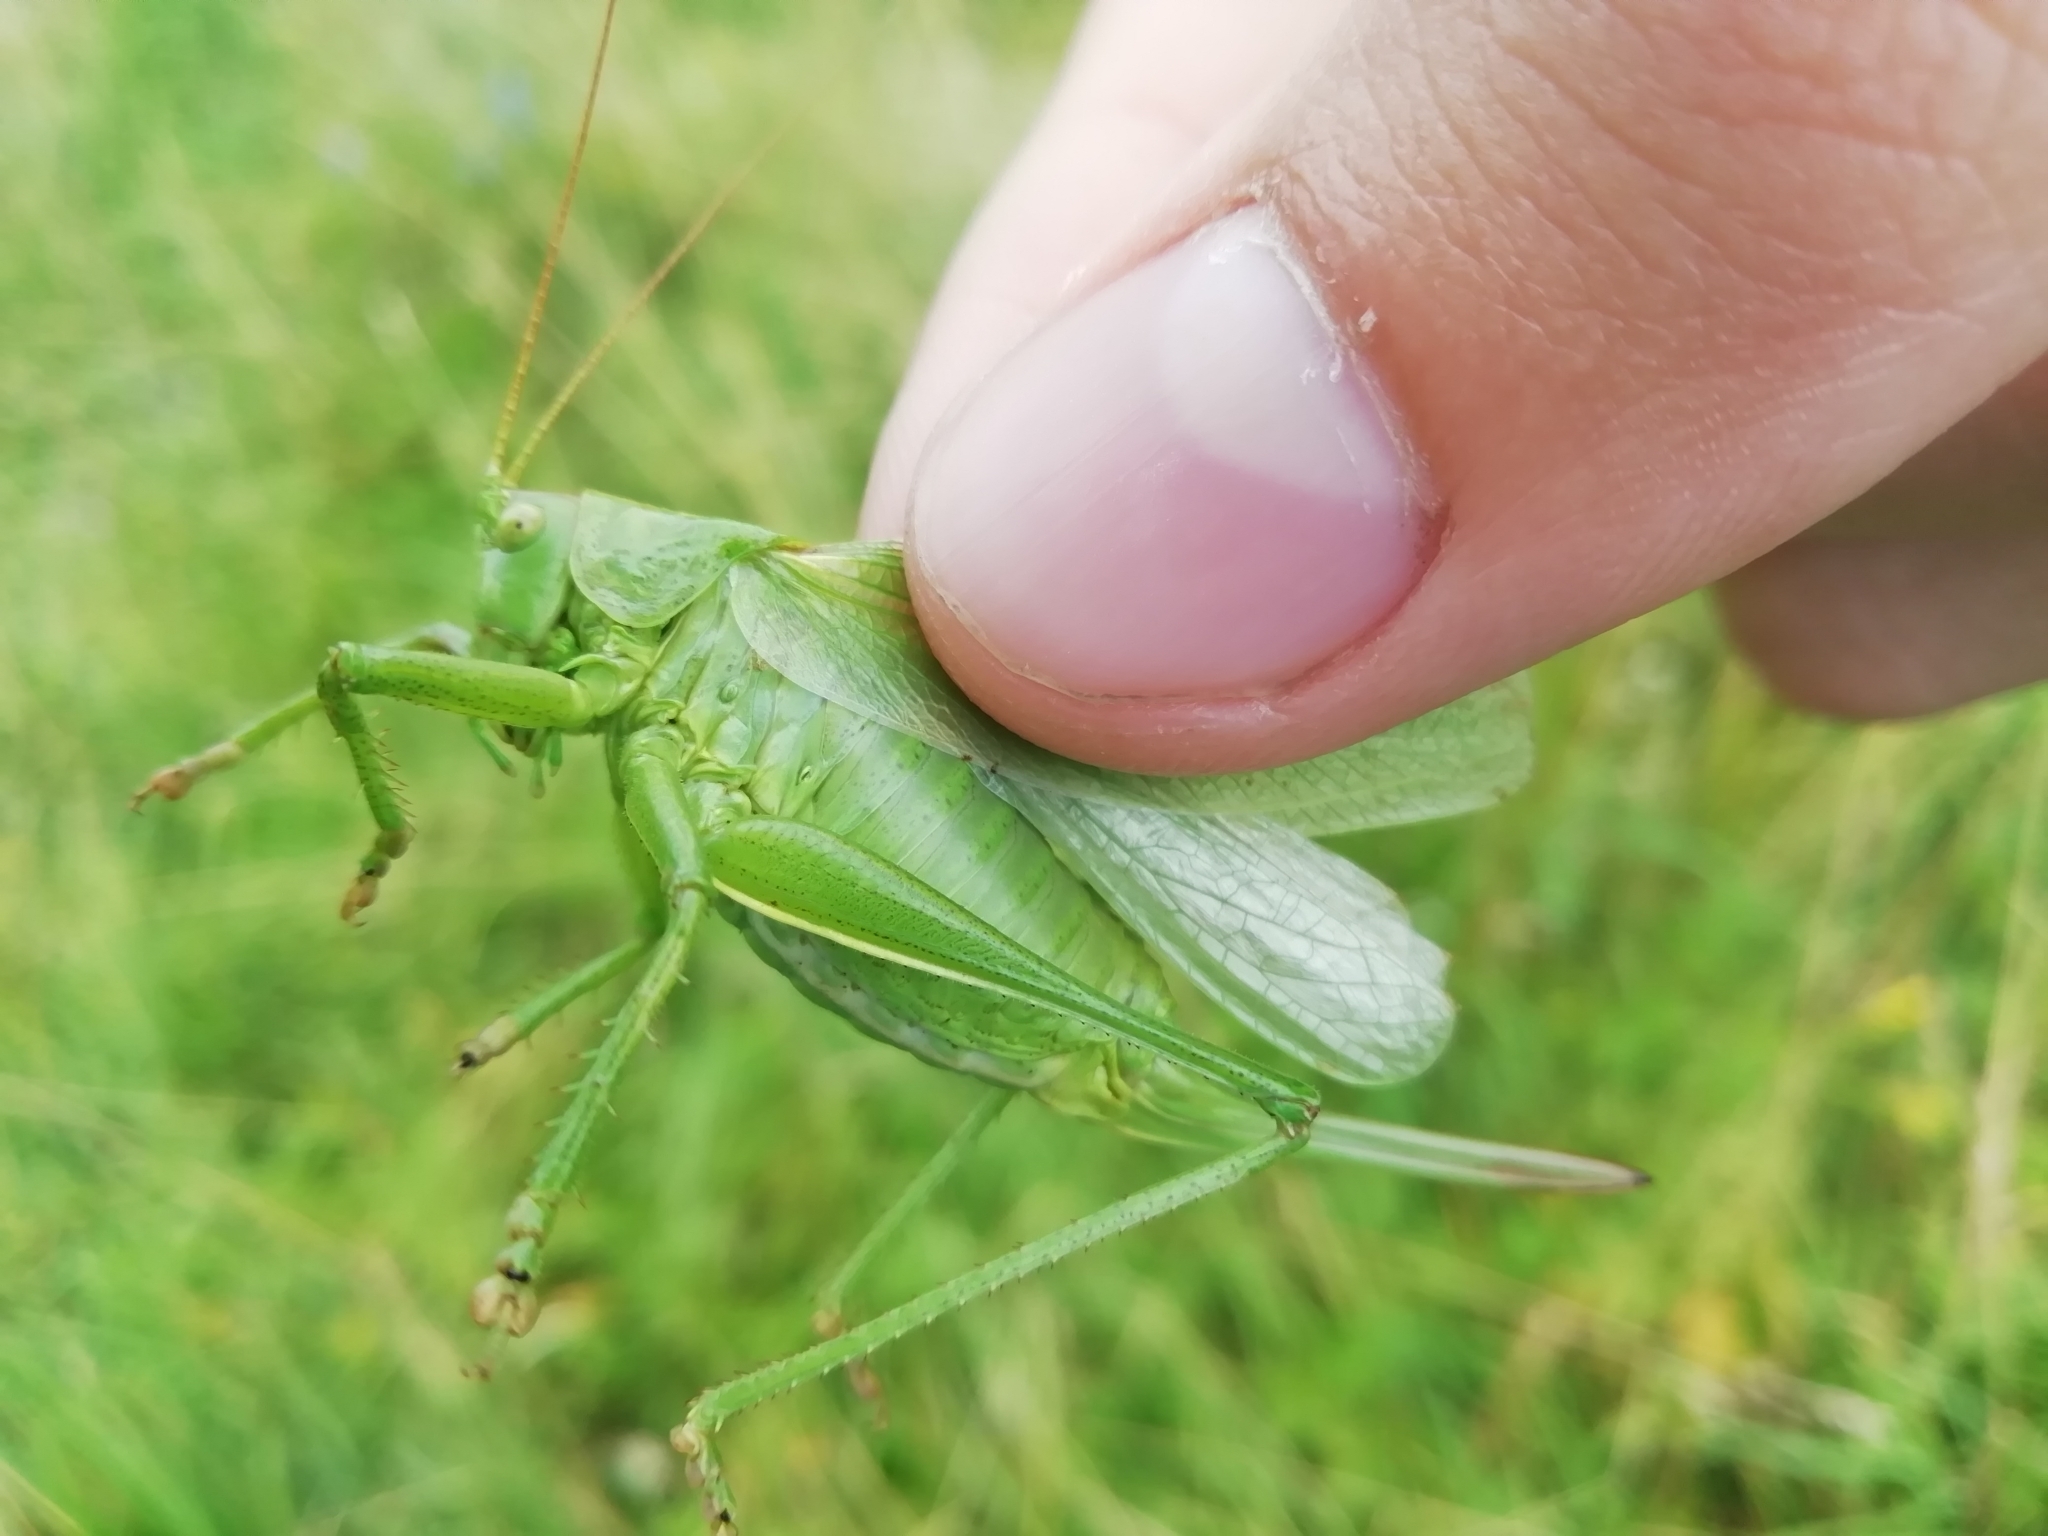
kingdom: Animalia
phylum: Arthropoda
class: Insecta
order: Orthoptera
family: Tettigoniidae
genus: Tettigonia
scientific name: Tettigonia cantans
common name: Upland green bush-cricket
